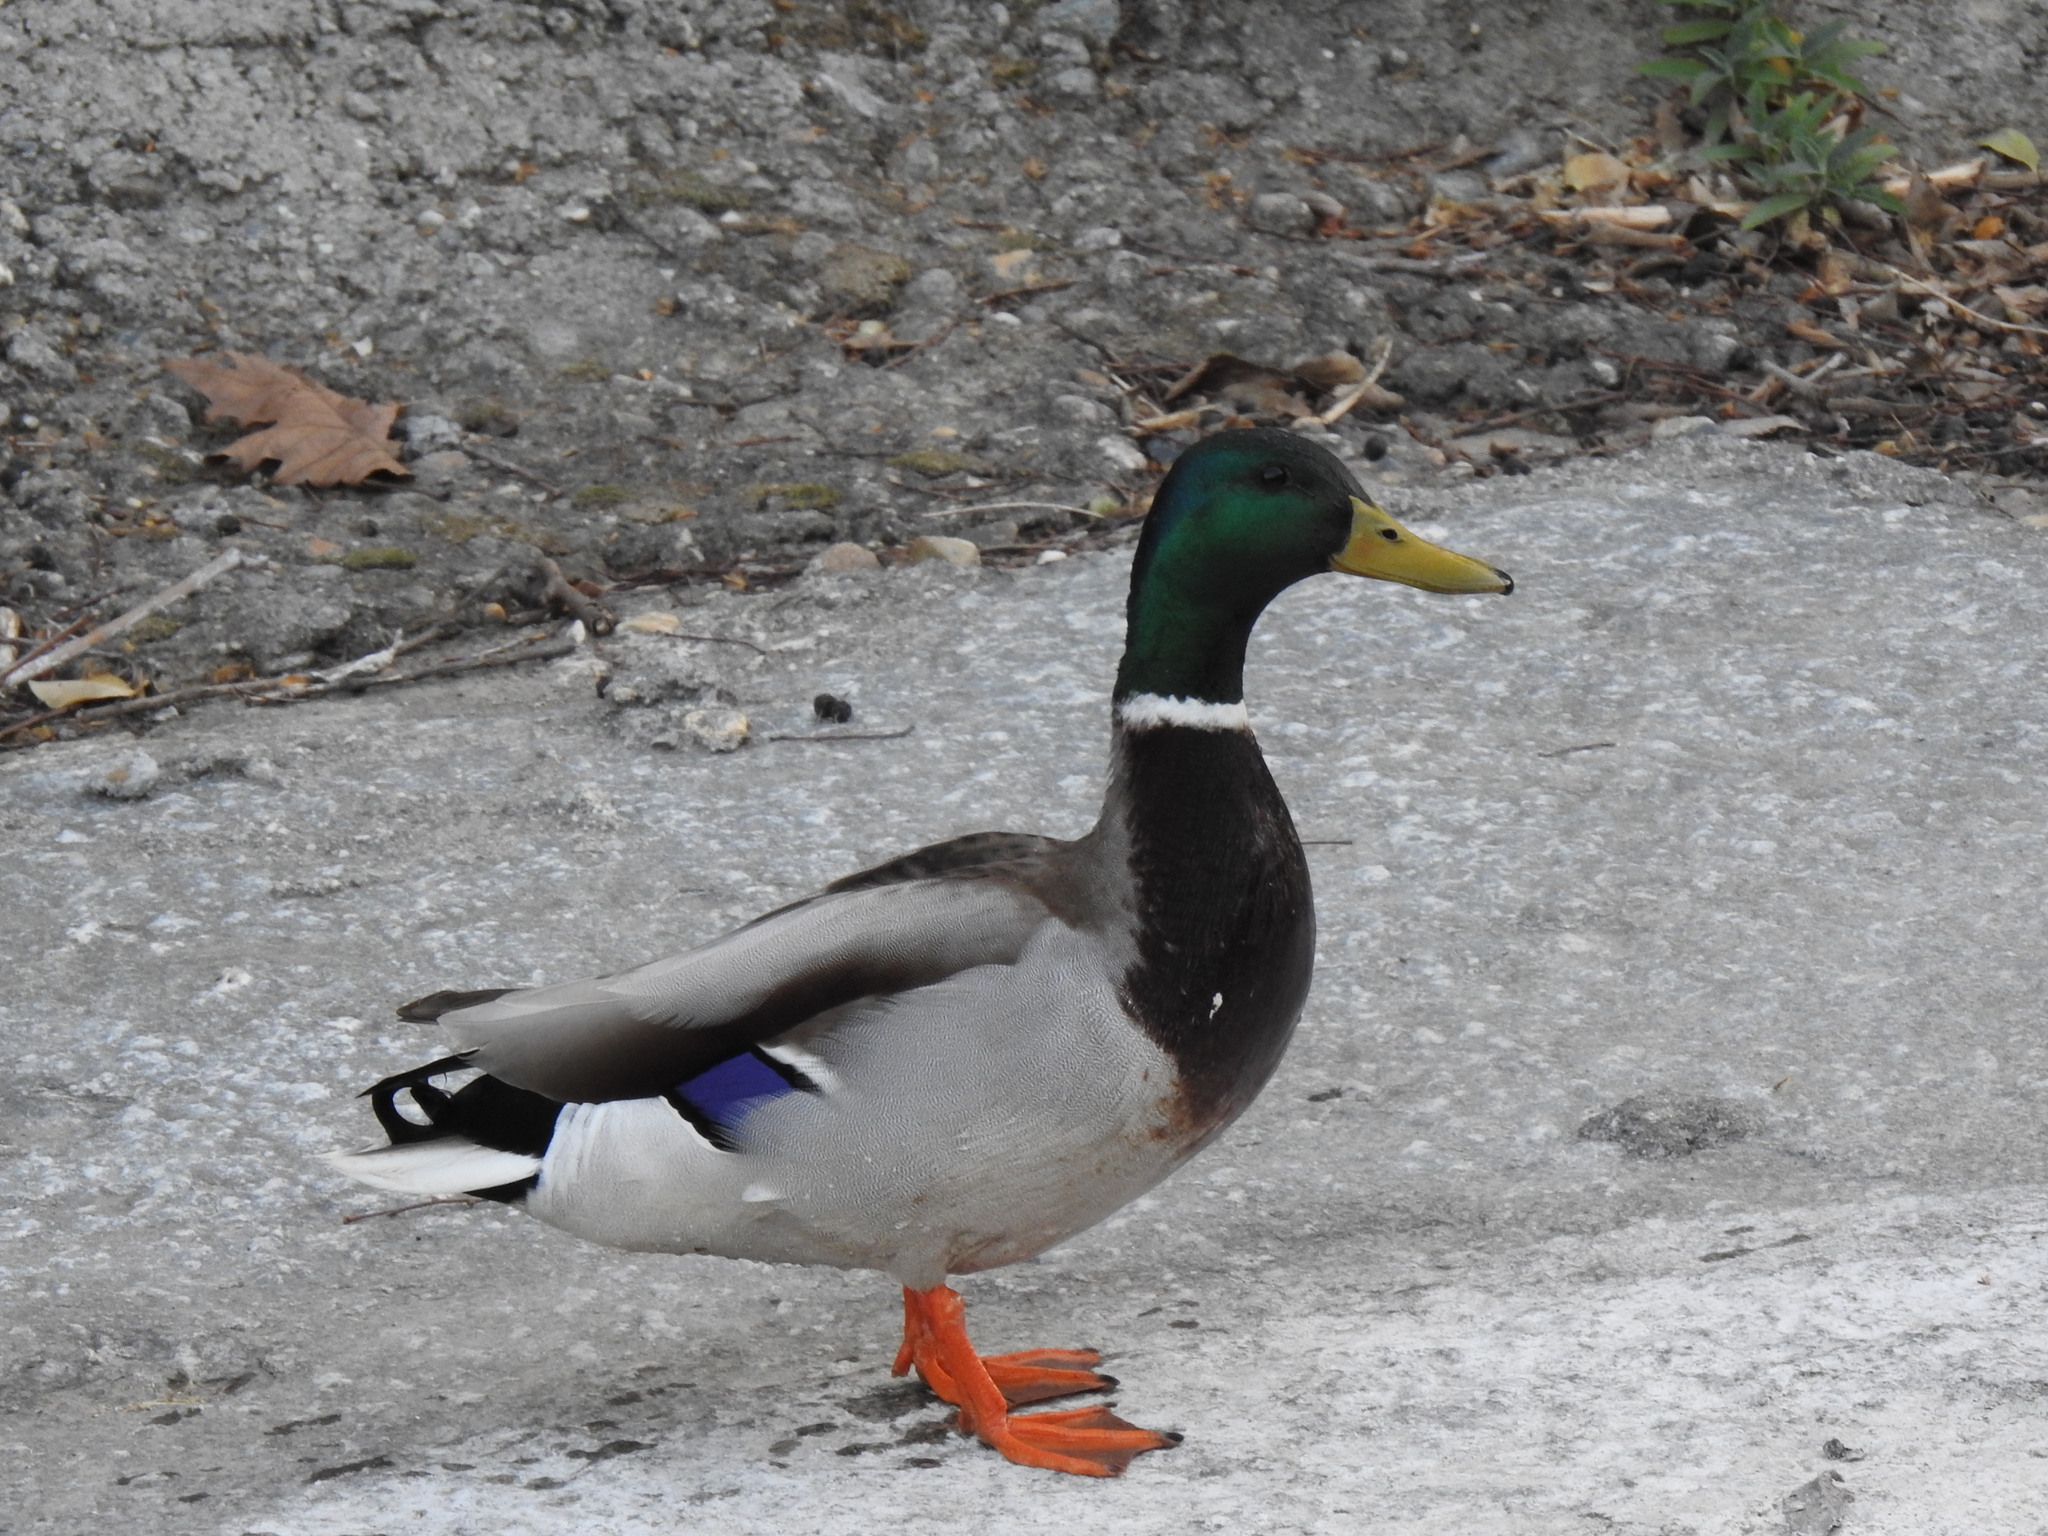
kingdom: Animalia
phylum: Chordata
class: Aves
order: Anseriformes
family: Anatidae
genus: Anas
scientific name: Anas platyrhynchos
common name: Mallard
